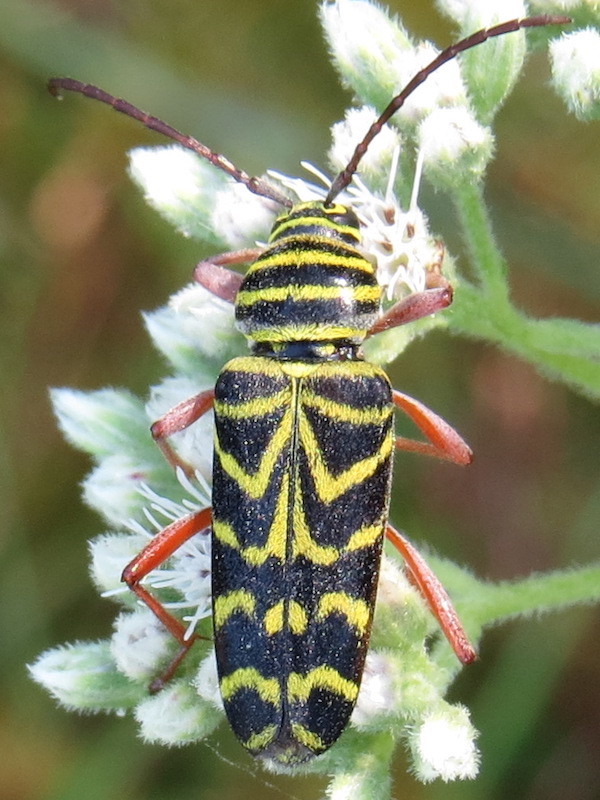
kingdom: Animalia
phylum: Arthropoda
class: Insecta
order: Coleoptera
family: Cerambycidae
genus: Megacyllene
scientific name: Megacyllene robiniae
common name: Locust borer
